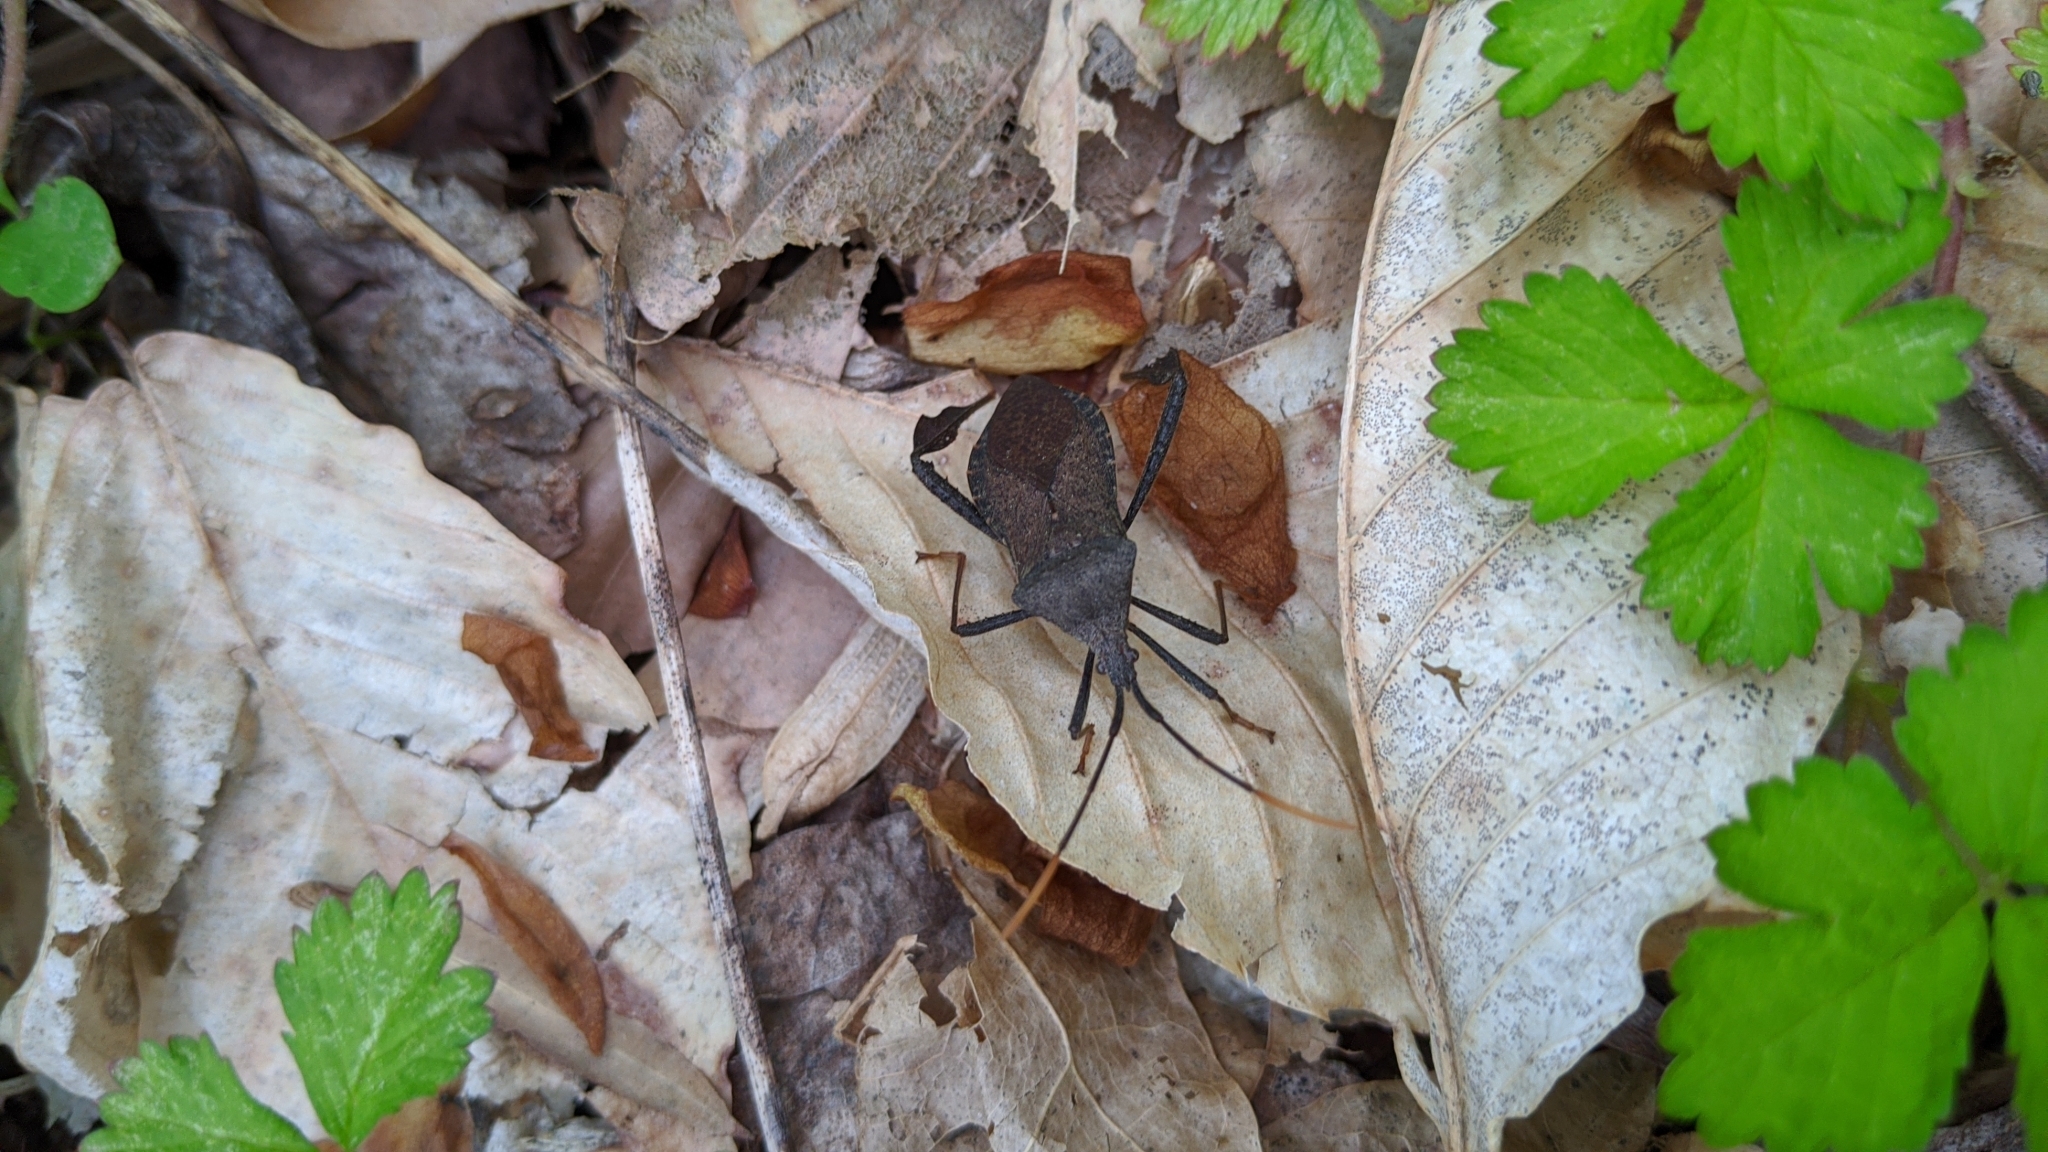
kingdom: Animalia
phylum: Arthropoda
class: Insecta
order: Hemiptera
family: Coreidae
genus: Acanthocephala
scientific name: Acanthocephala terminalis
